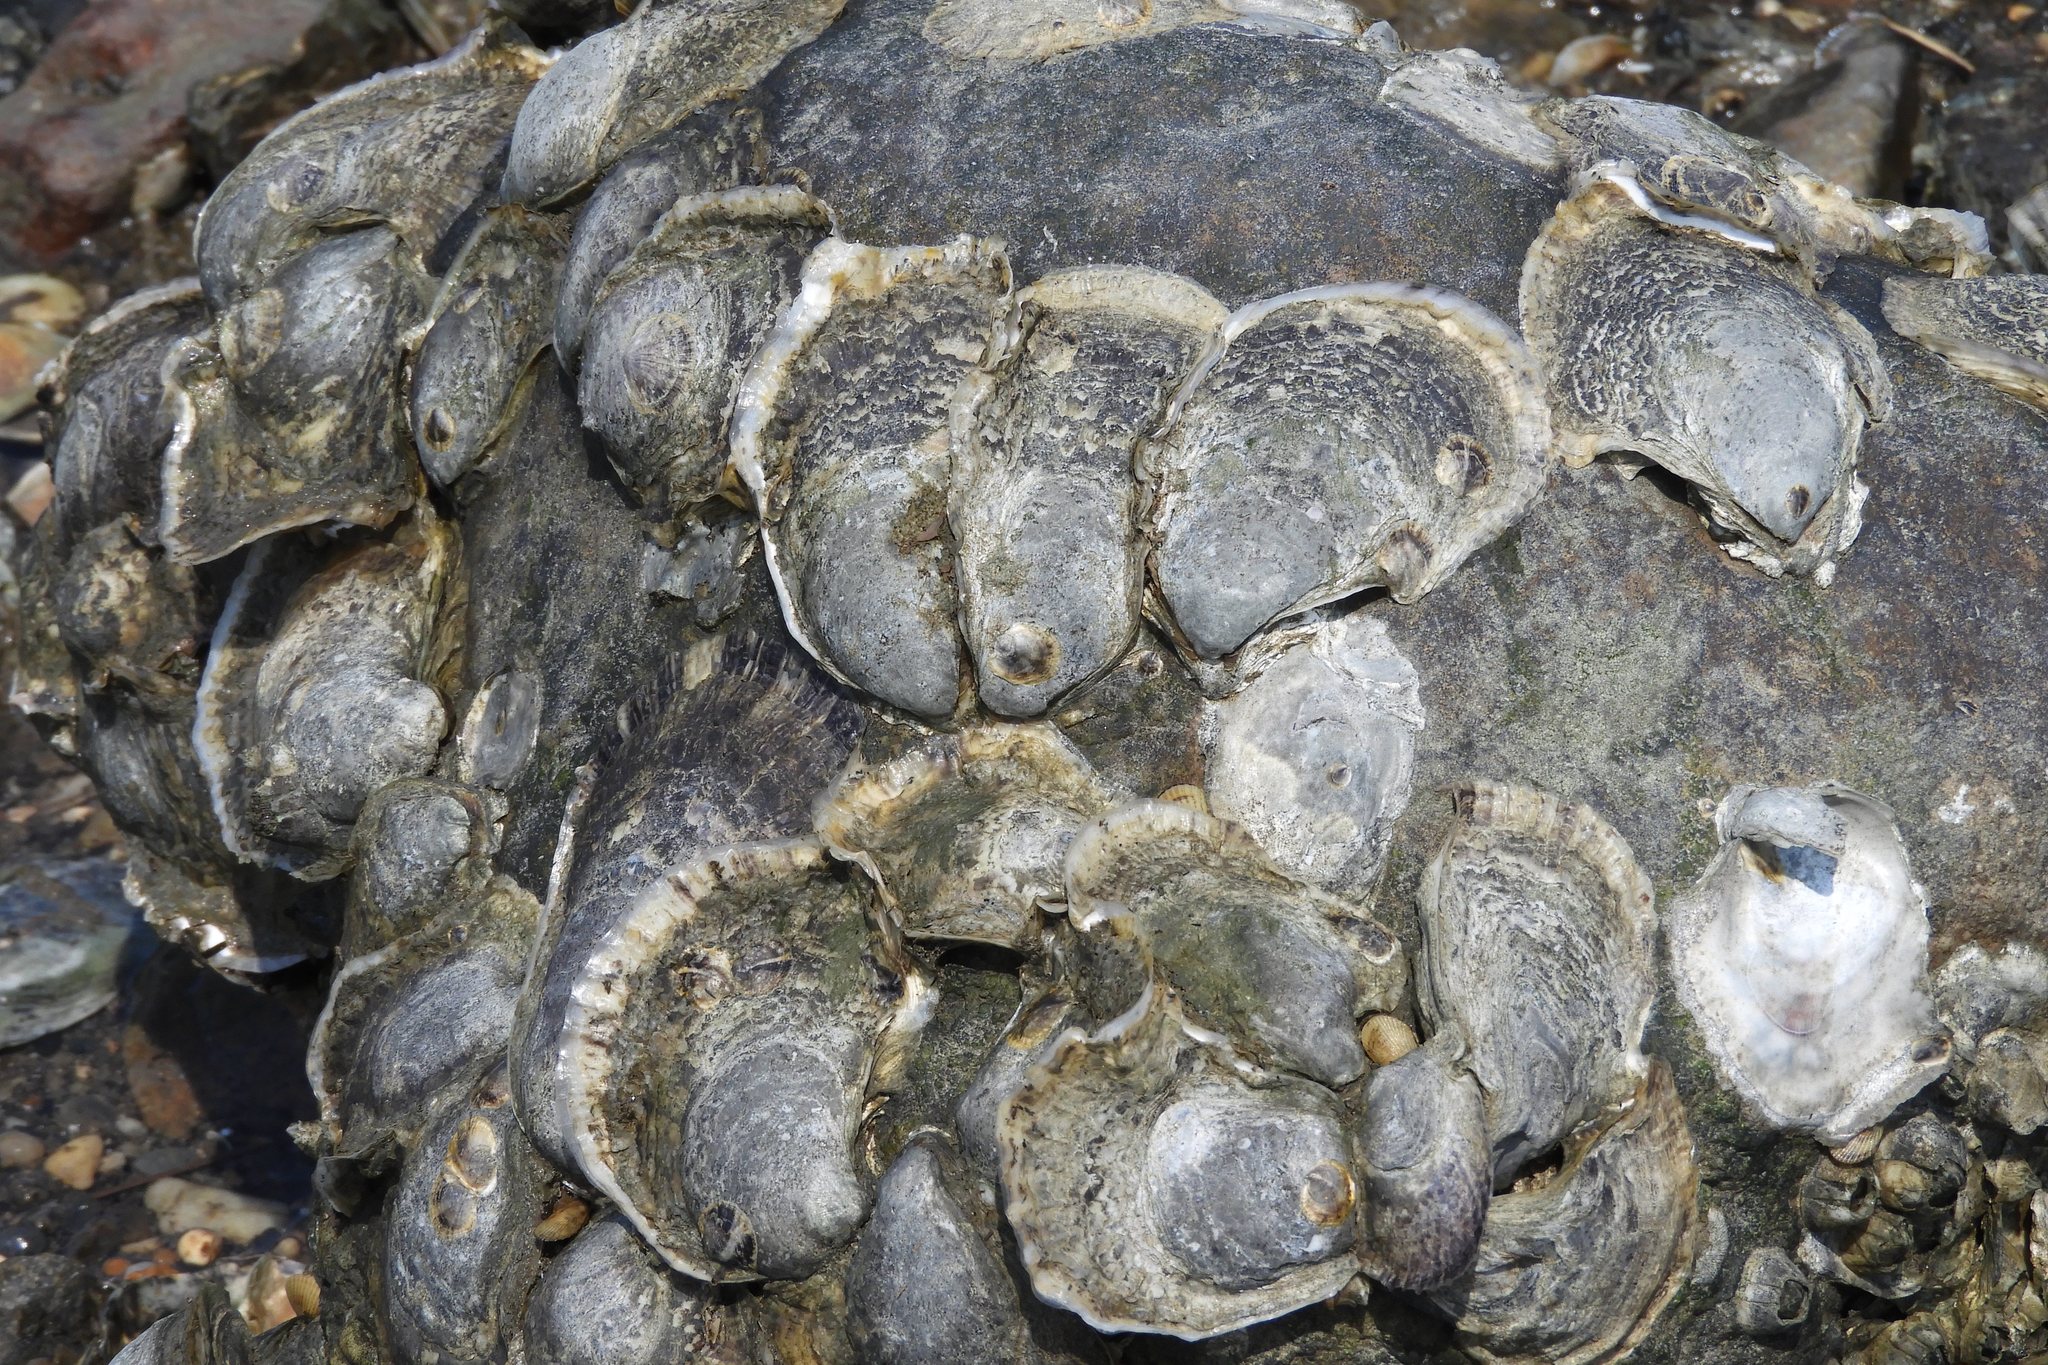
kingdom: Animalia
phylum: Mollusca
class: Bivalvia
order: Ostreida
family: Ostreidae
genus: Crassostrea
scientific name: Crassostrea virginica
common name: American oyster
